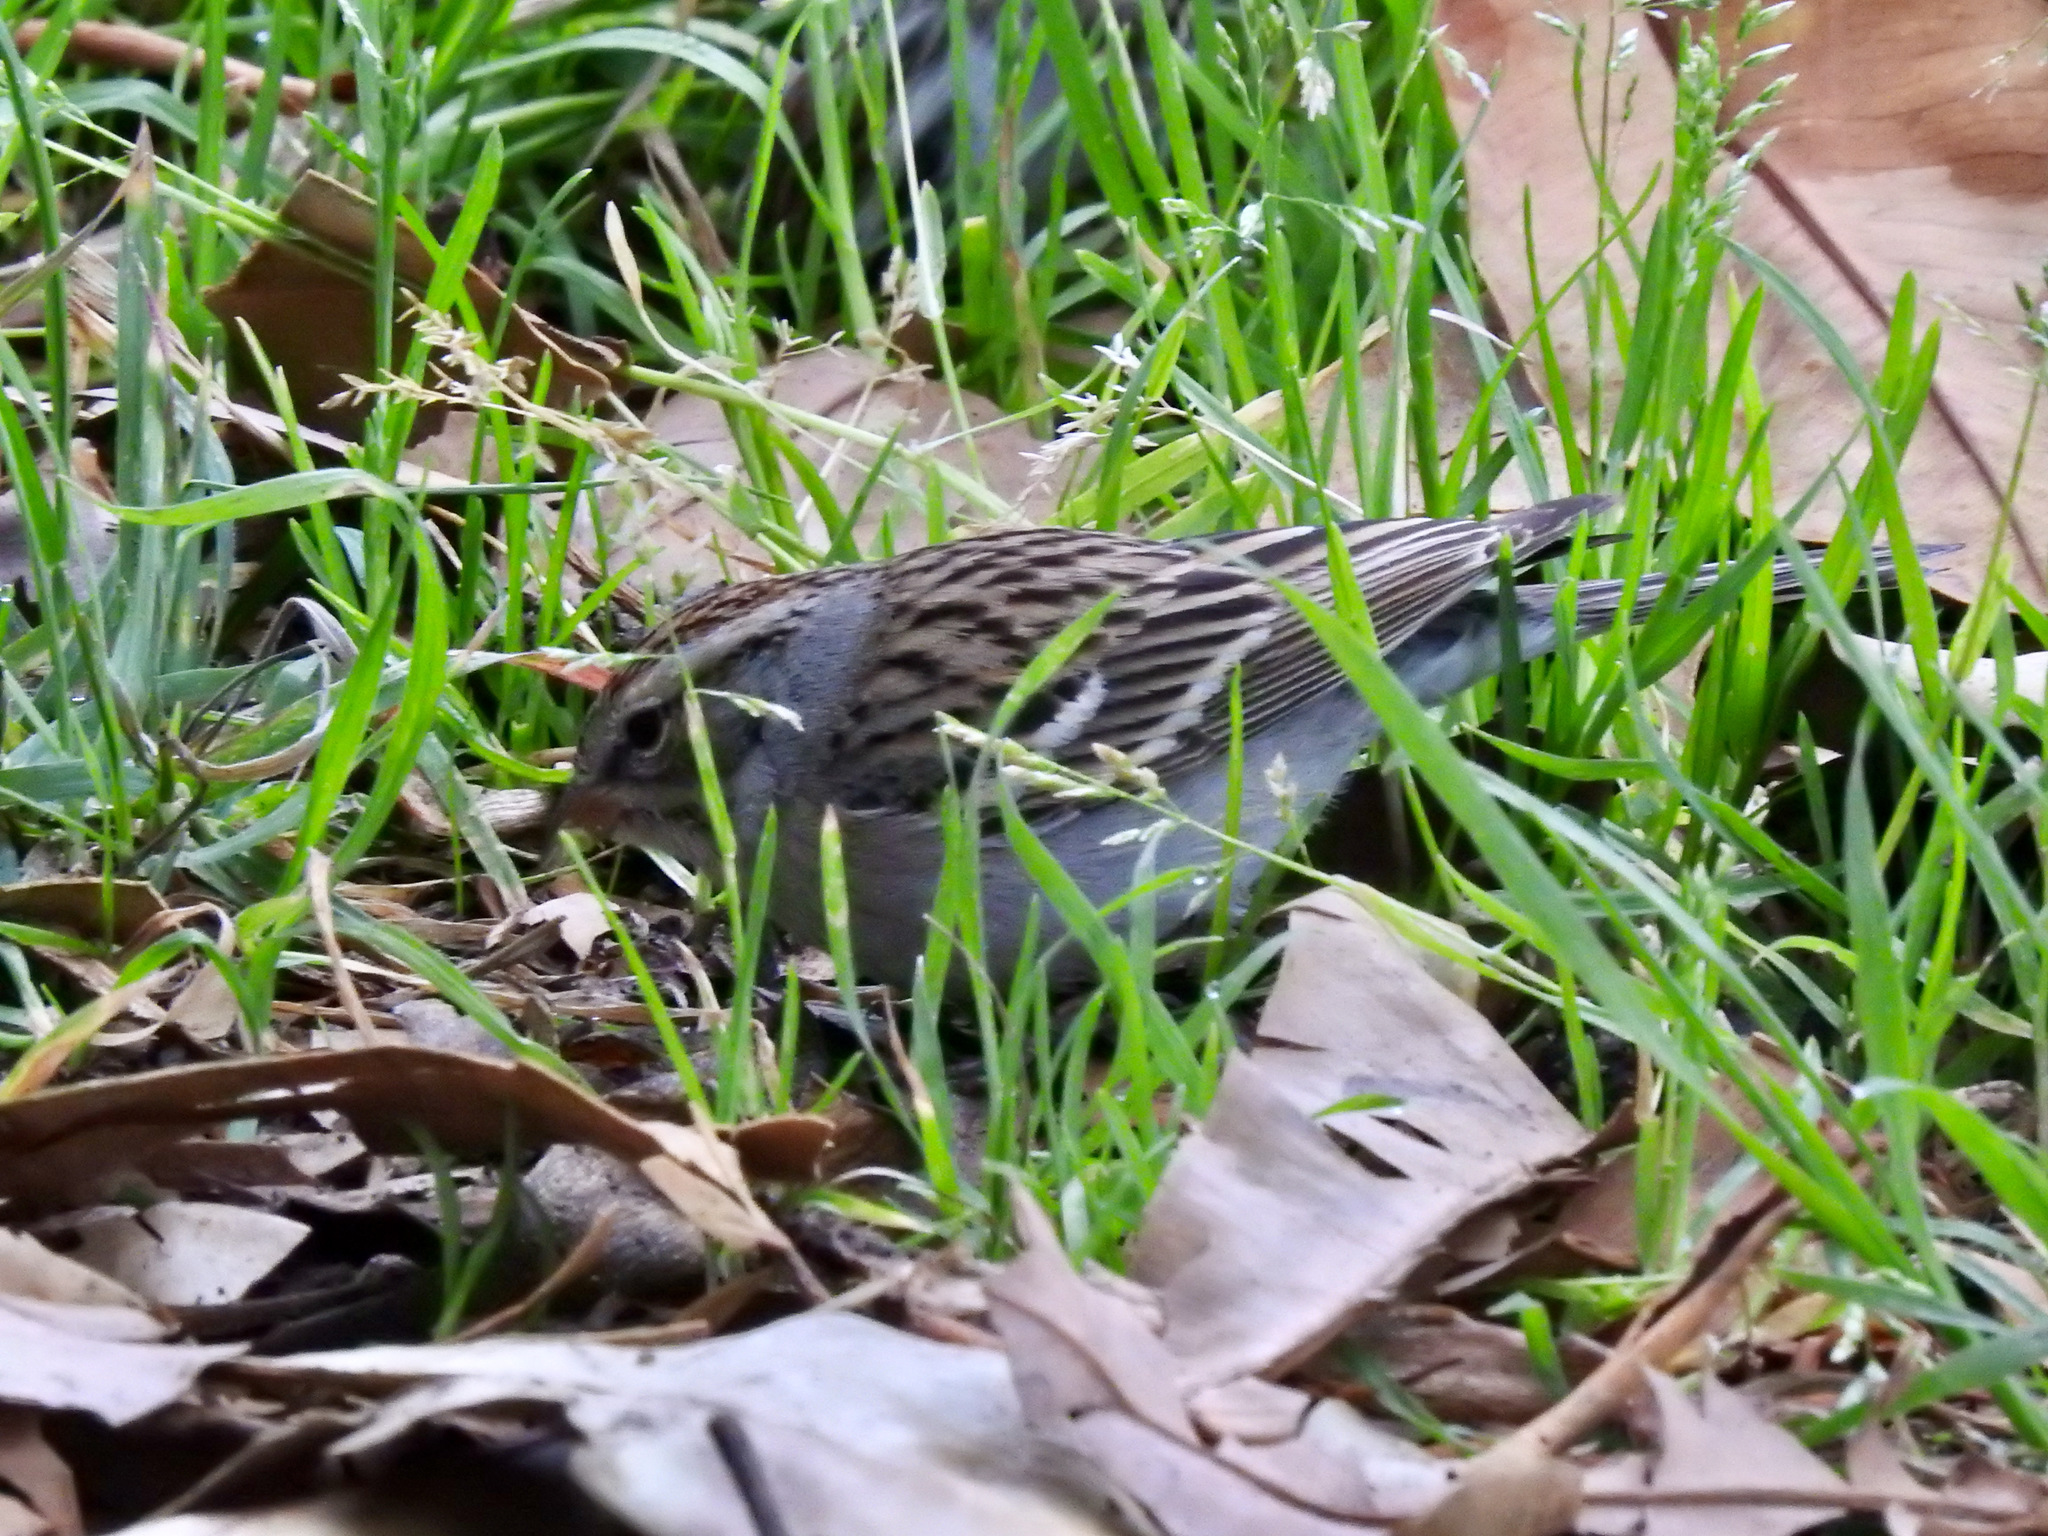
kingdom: Animalia
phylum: Chordata
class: Aves
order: Passeriformes
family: Passerellidae
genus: Spizella
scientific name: Spizella passerina
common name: Chipping sparrow
